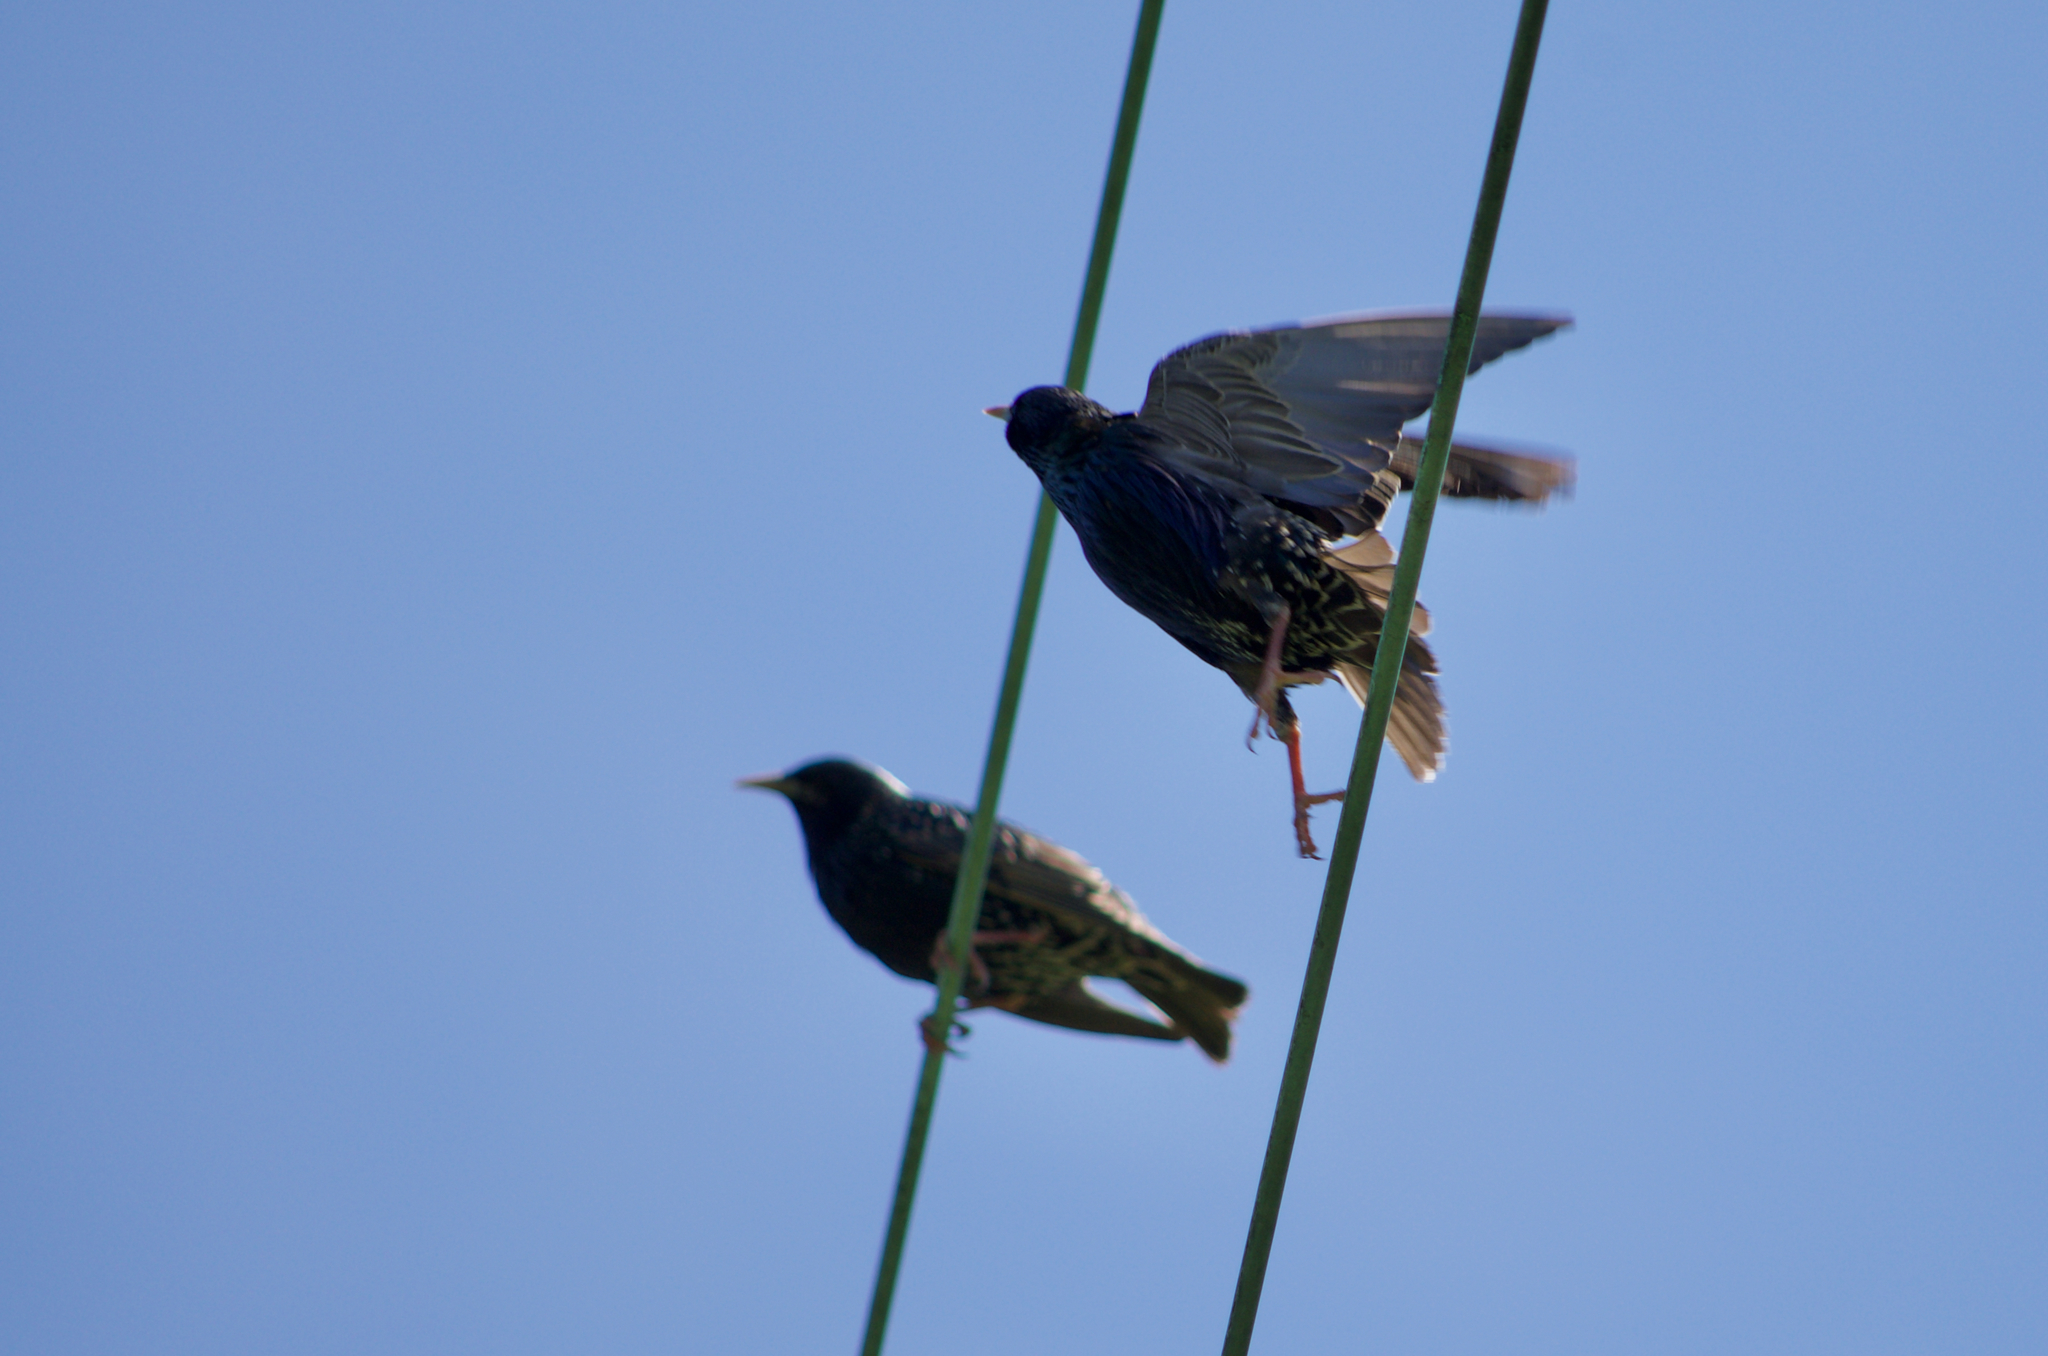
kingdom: Animalia
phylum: Chordata
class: Aves
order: Passeriformes
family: Sturnidae
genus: Sturnus
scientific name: Sturnus vulgaris
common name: Common starling
